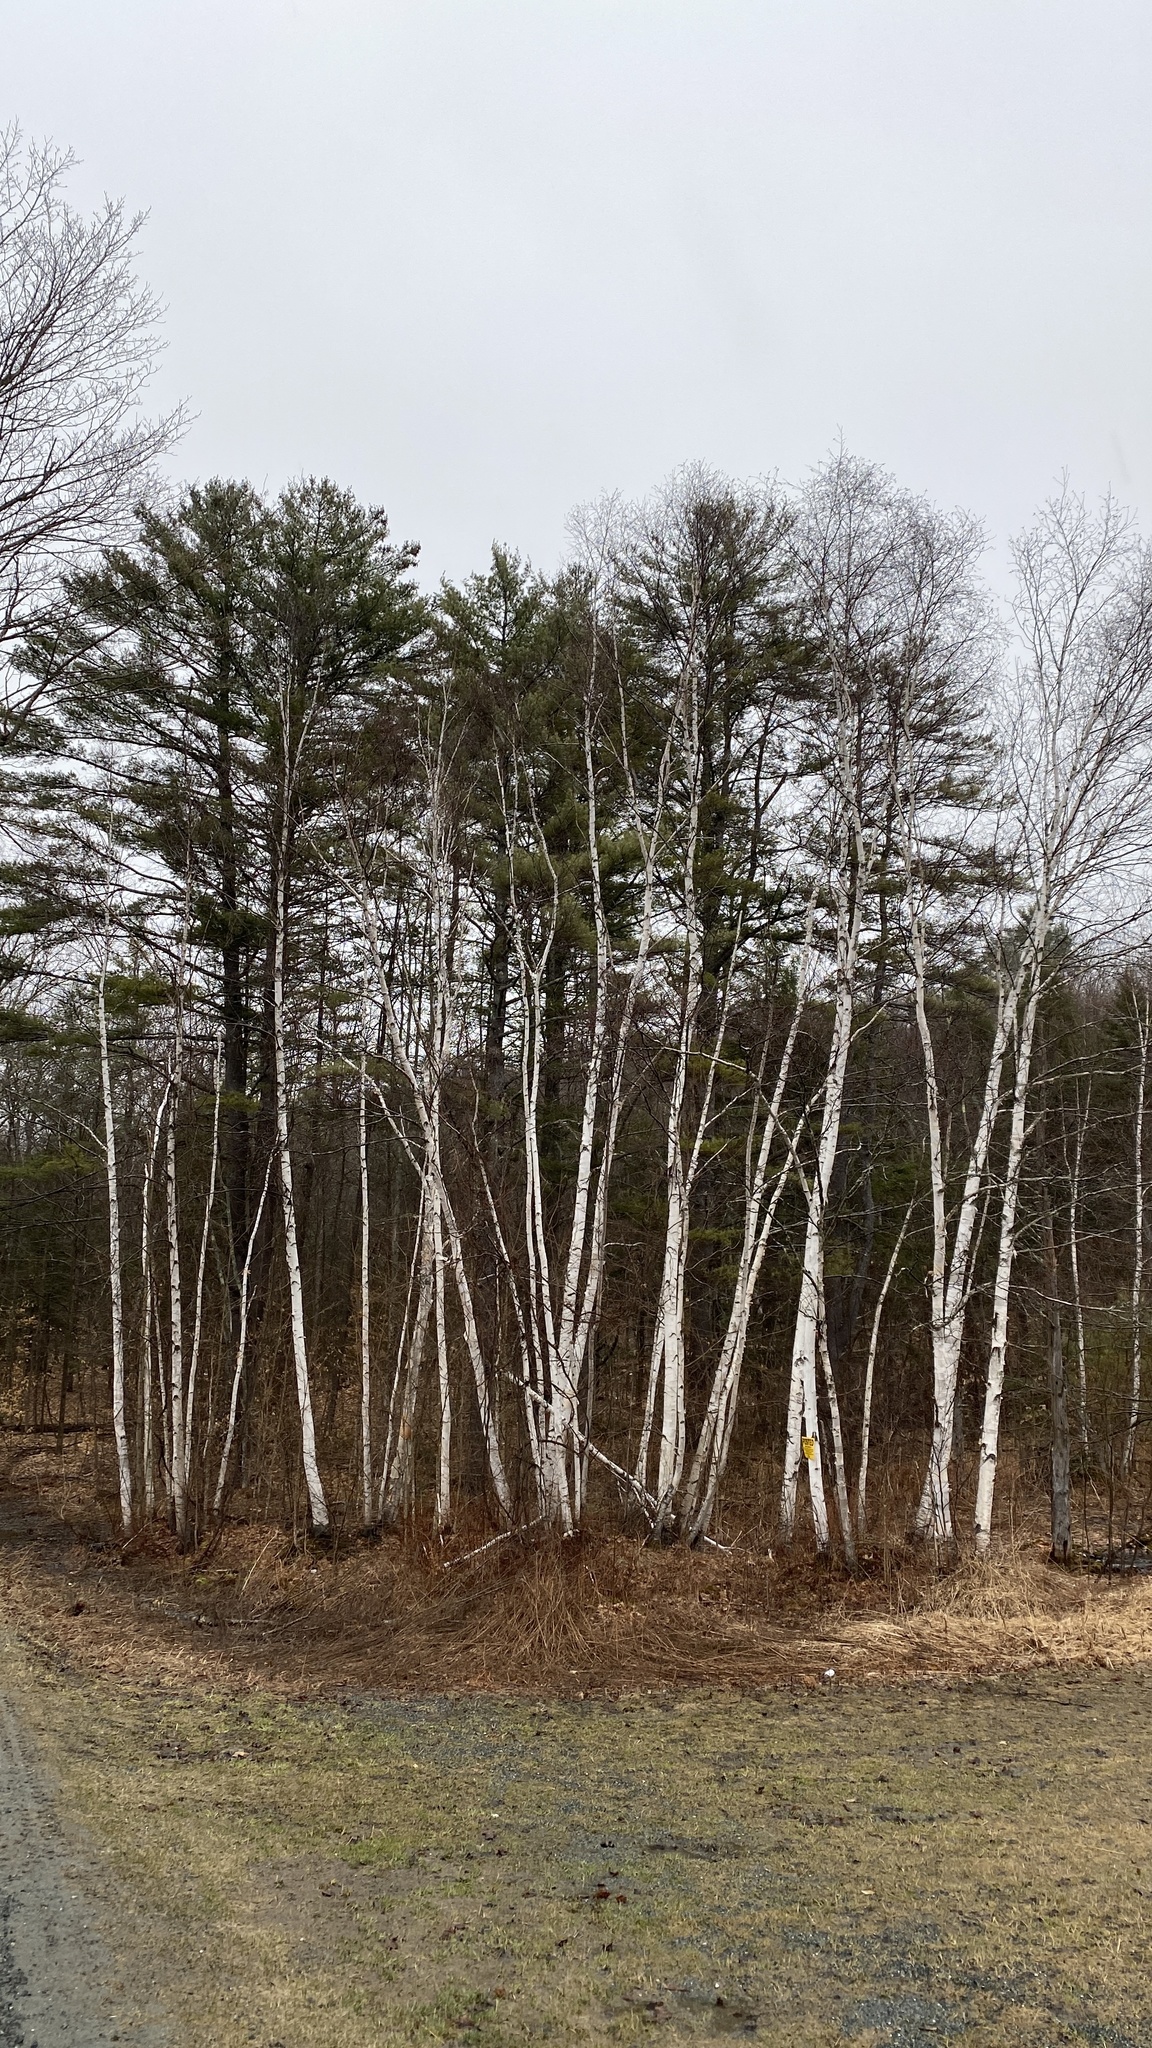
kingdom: Plantae
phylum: Tracheophyta
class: Pinopsida
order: Pinales
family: Pinaceae
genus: Pinus
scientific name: Pinus strobus
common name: Weymouth pine
